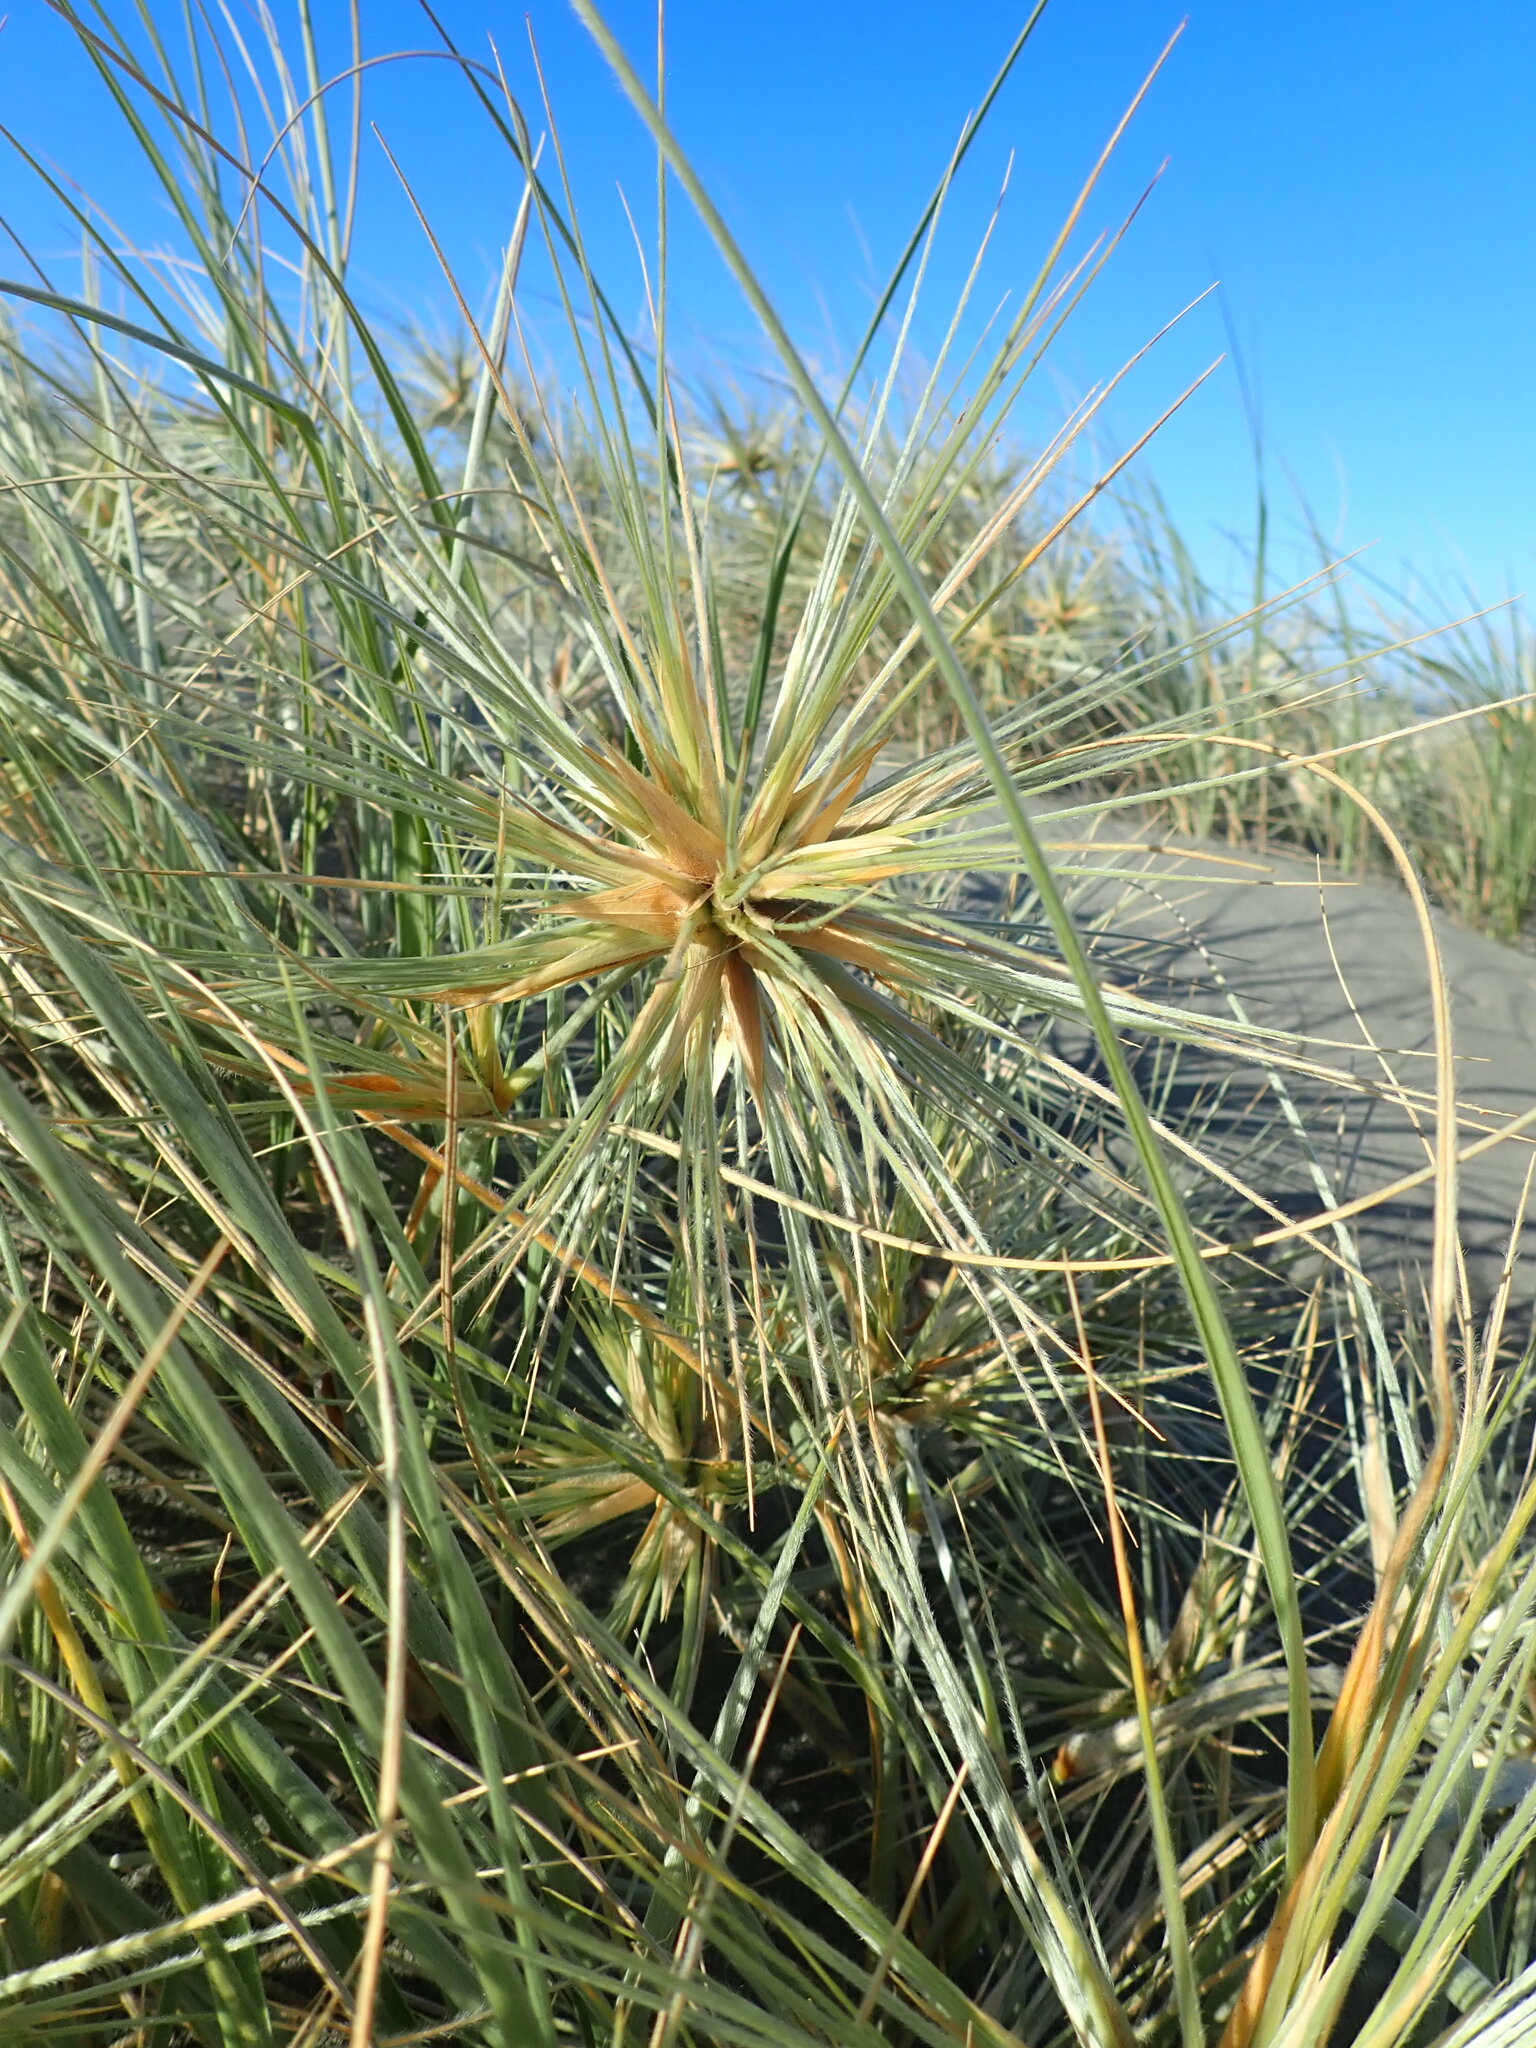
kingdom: Plantae
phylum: Tracheophyta
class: Liliopsida
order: Poales
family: Poaceae
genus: Spinifex
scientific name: Spinifex sericeus
